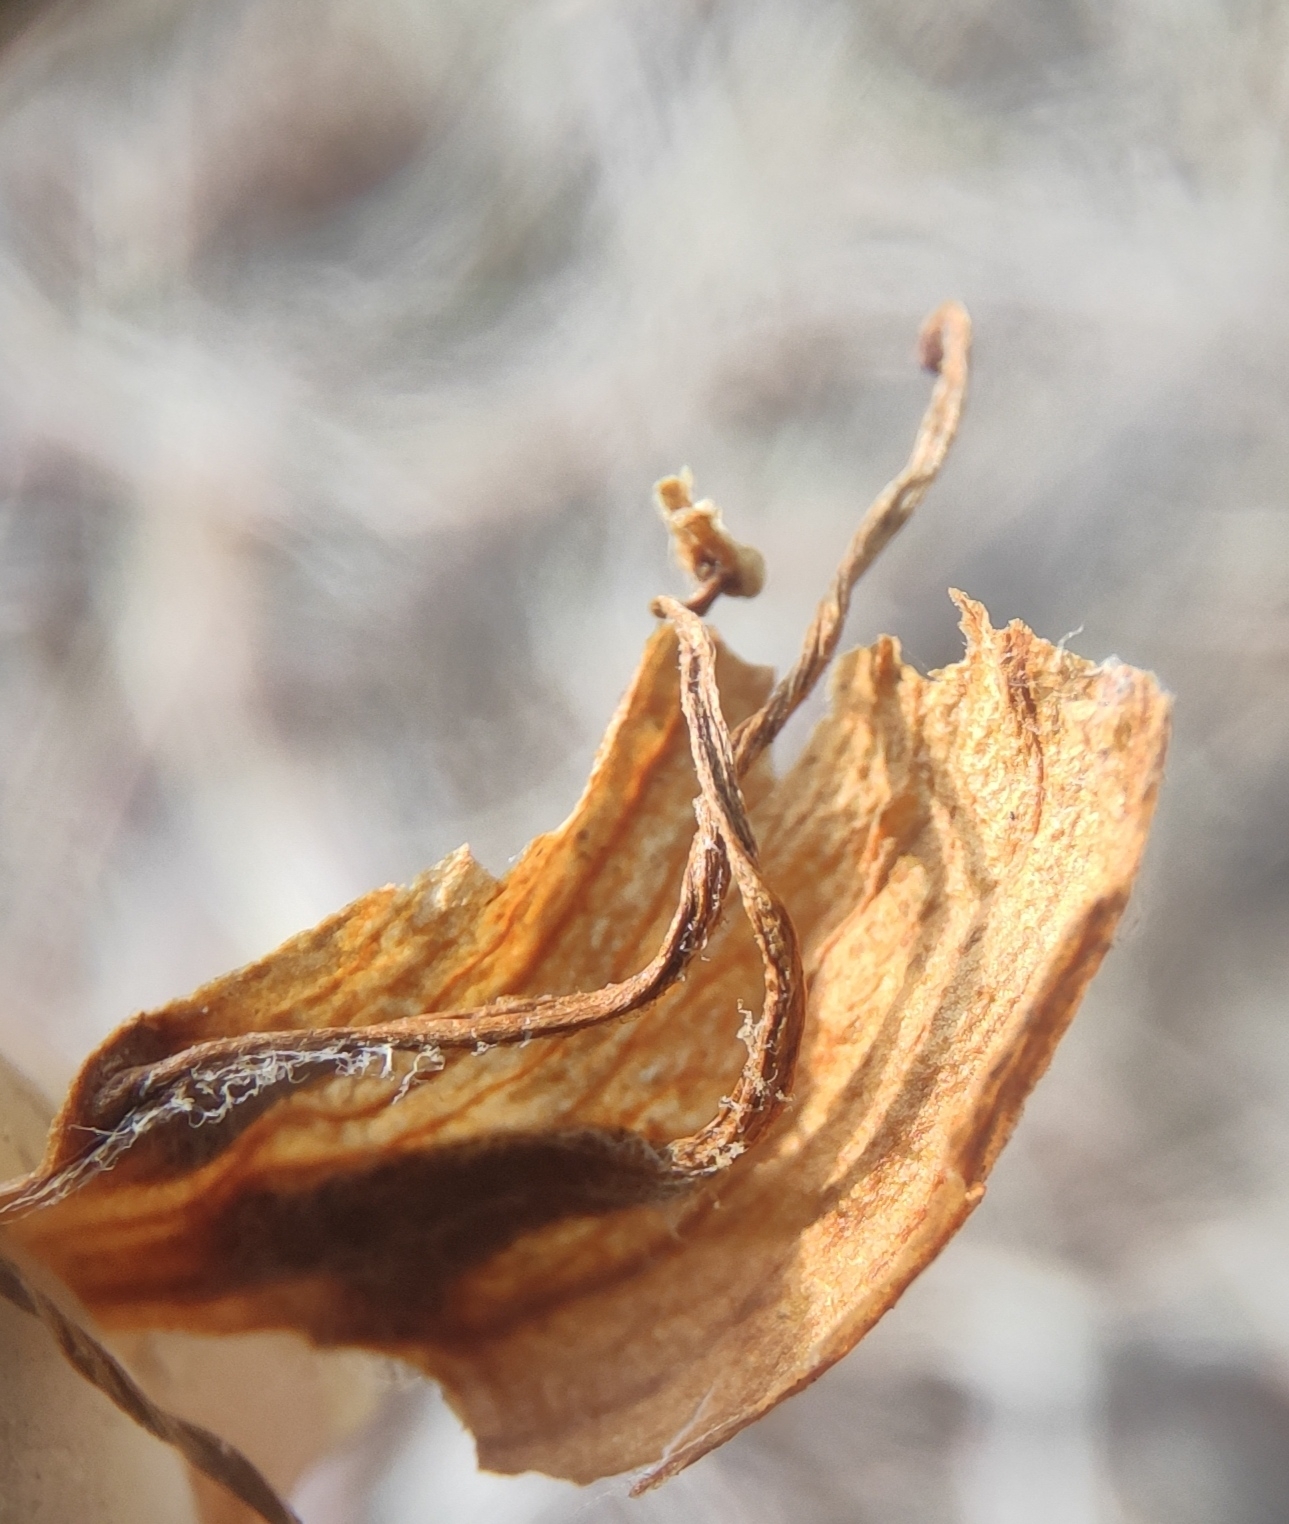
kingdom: Plantae
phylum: Tracheophyta
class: Magnoliopsida
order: Lamiales
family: Orobanchaceae
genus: Orobanche
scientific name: Orobanche krylowii
